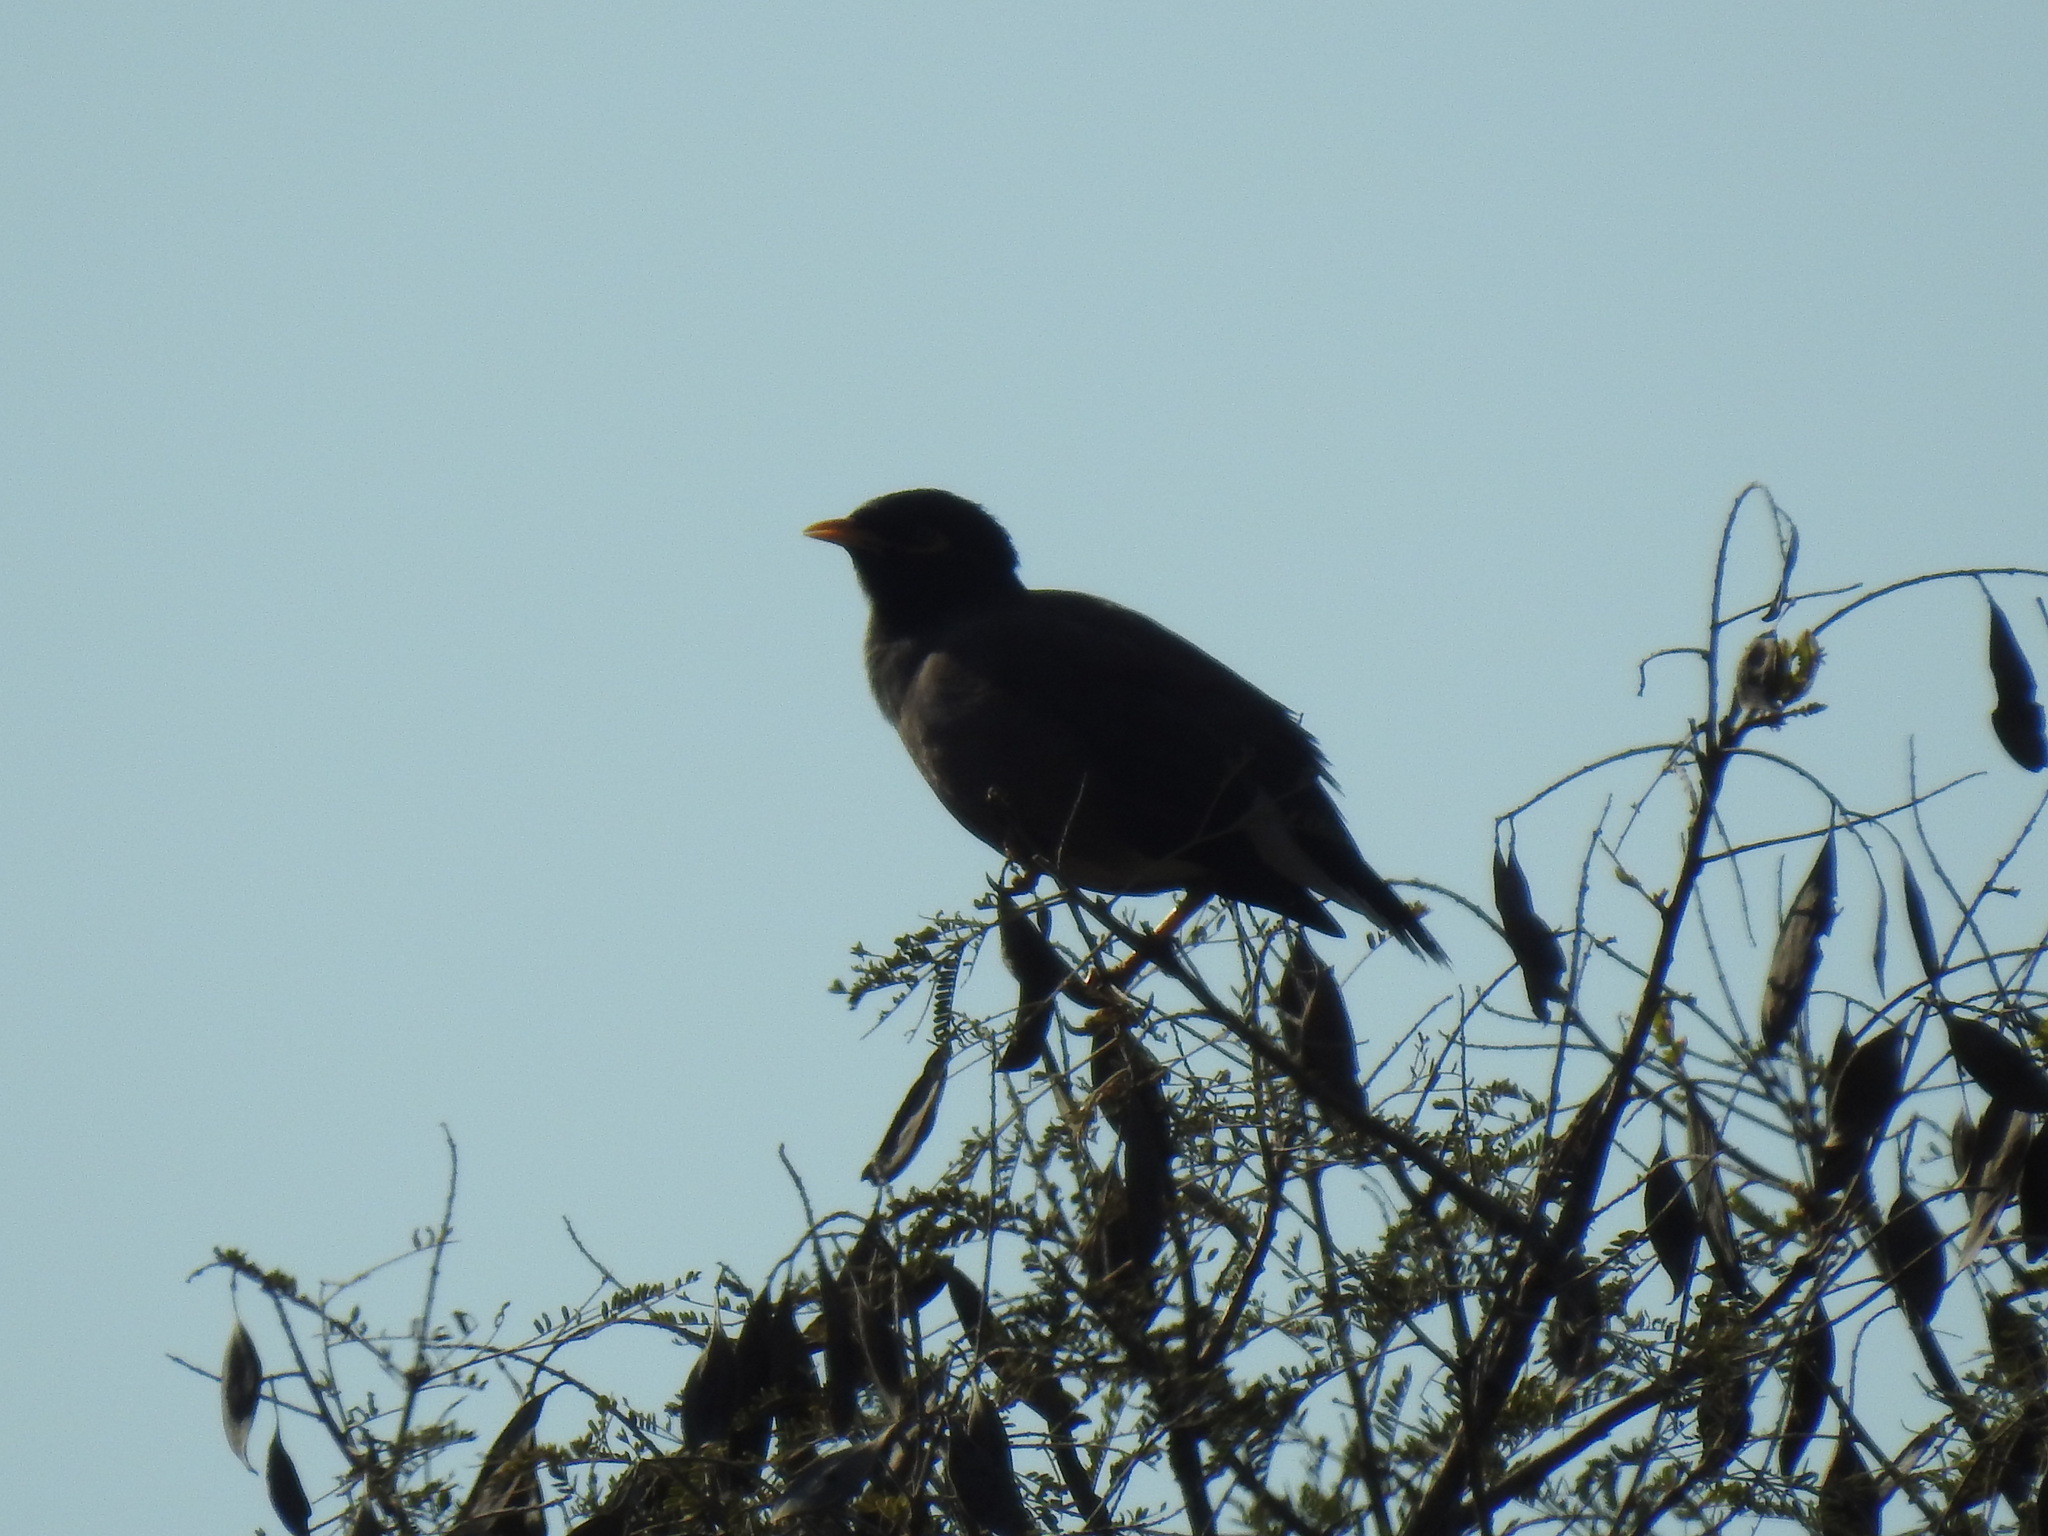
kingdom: Animalia
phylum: Chordata
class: Aves
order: Passeriformes
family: Sturnidae
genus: Acridotheres
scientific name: Acridotheres tristis
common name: Common myna
